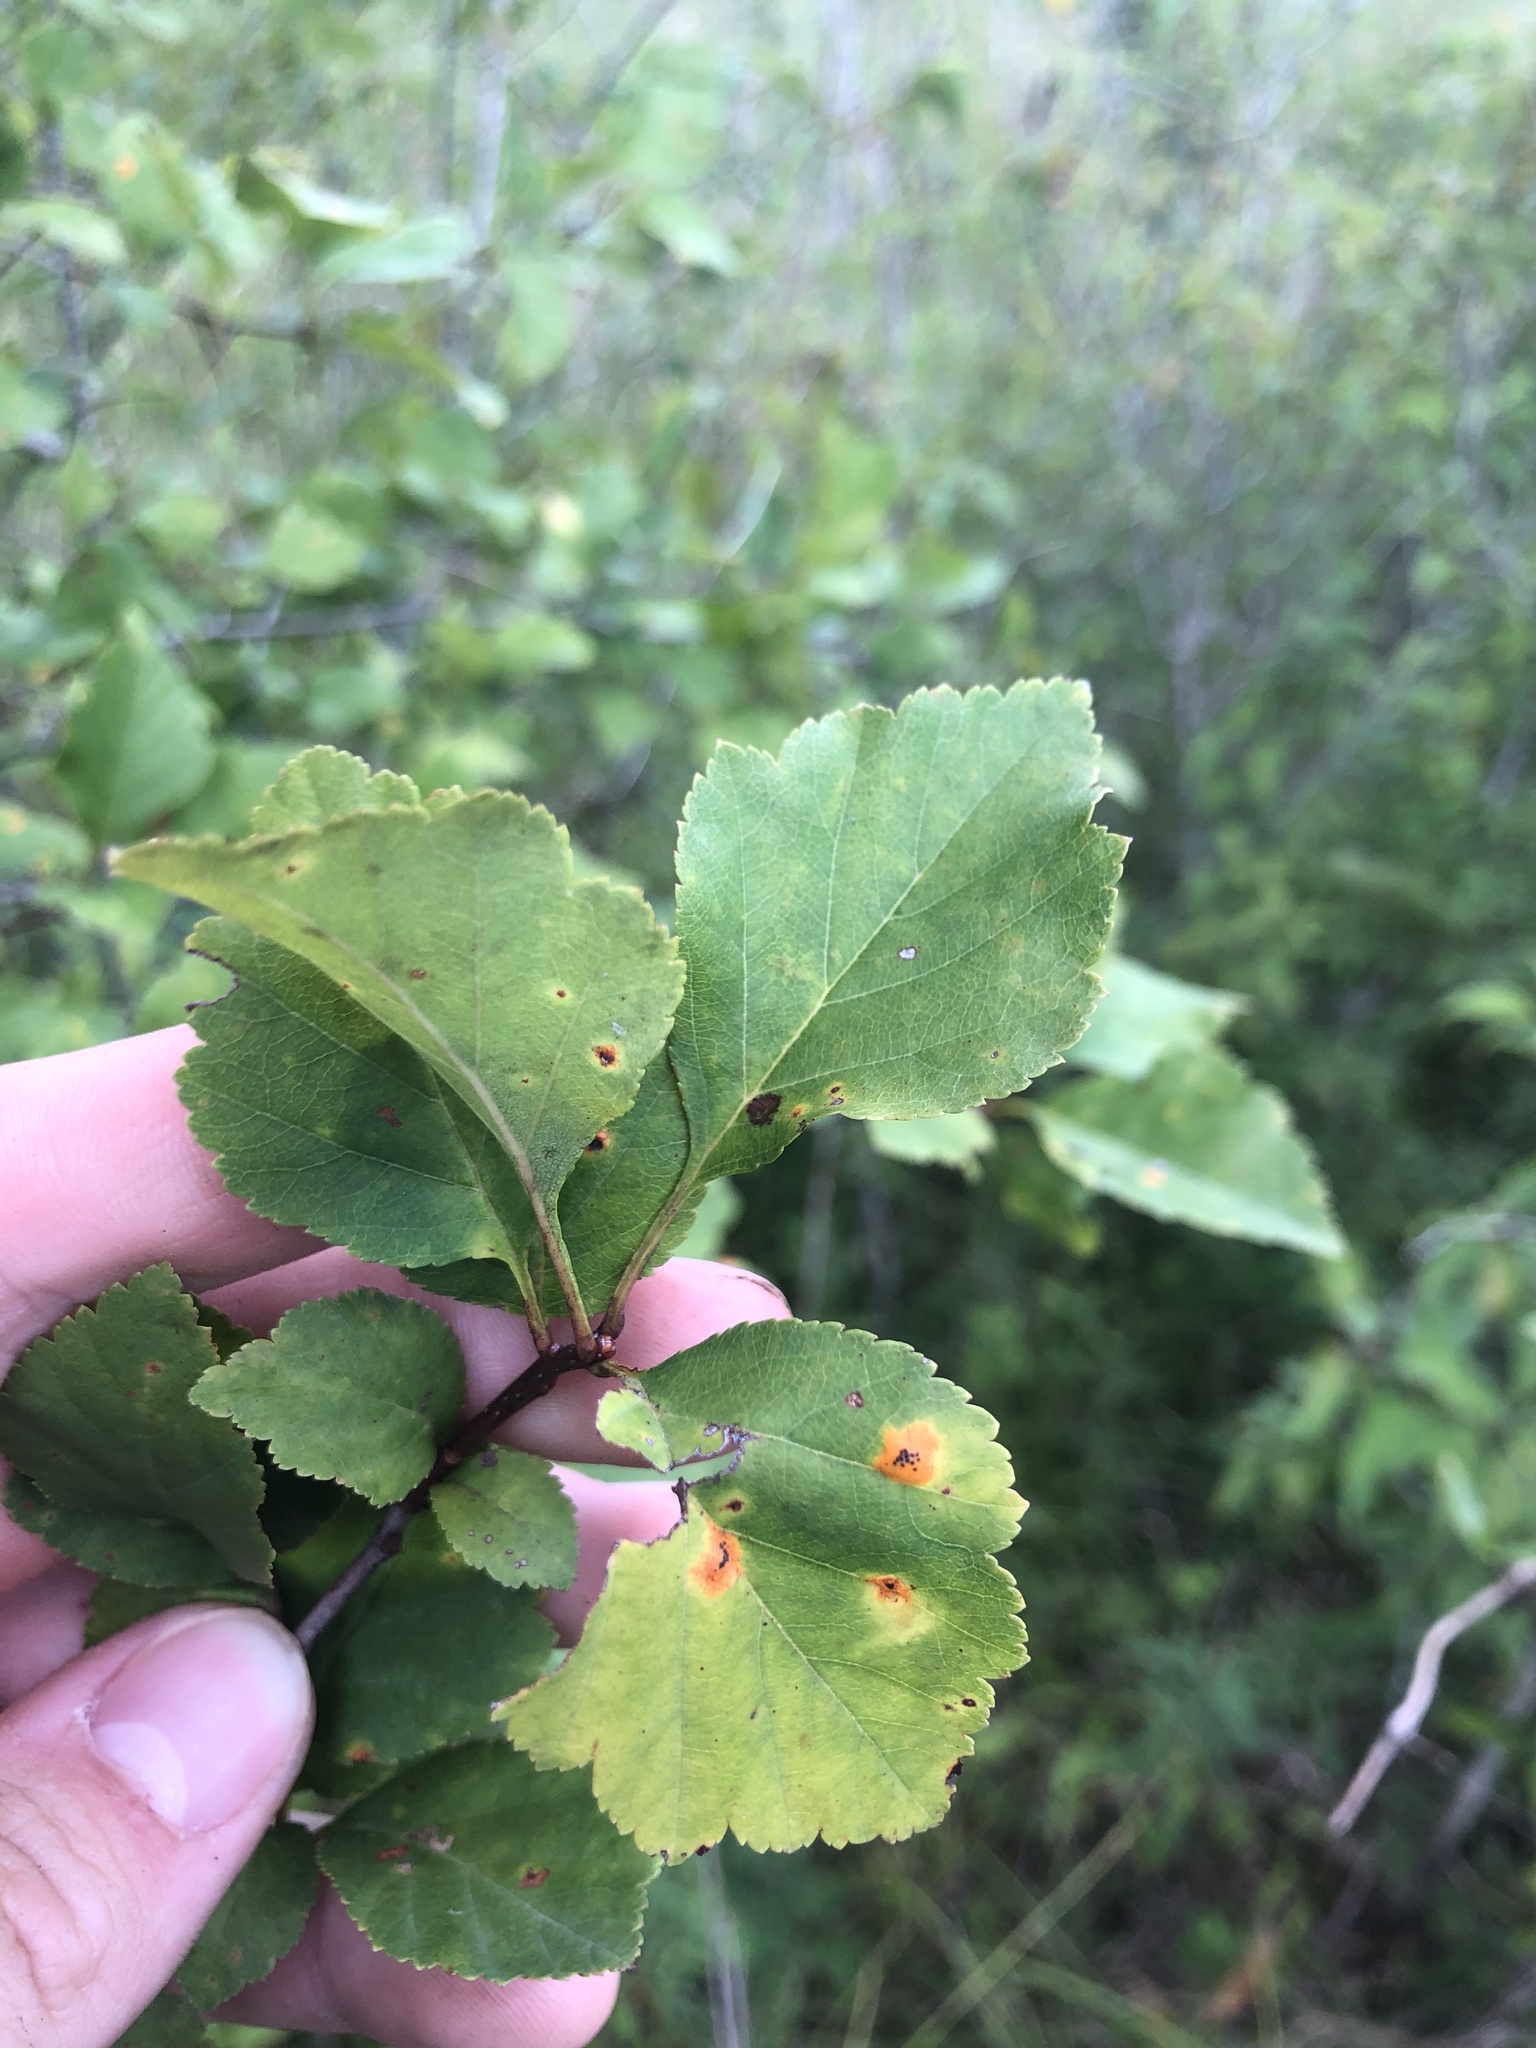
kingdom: Plantae
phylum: Tracheophyta
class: Magnoliopsida
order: Rosales
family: Rosaceae
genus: Crataegus
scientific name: Crataegus pruinosa
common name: Waxy-fruit hawthorn
